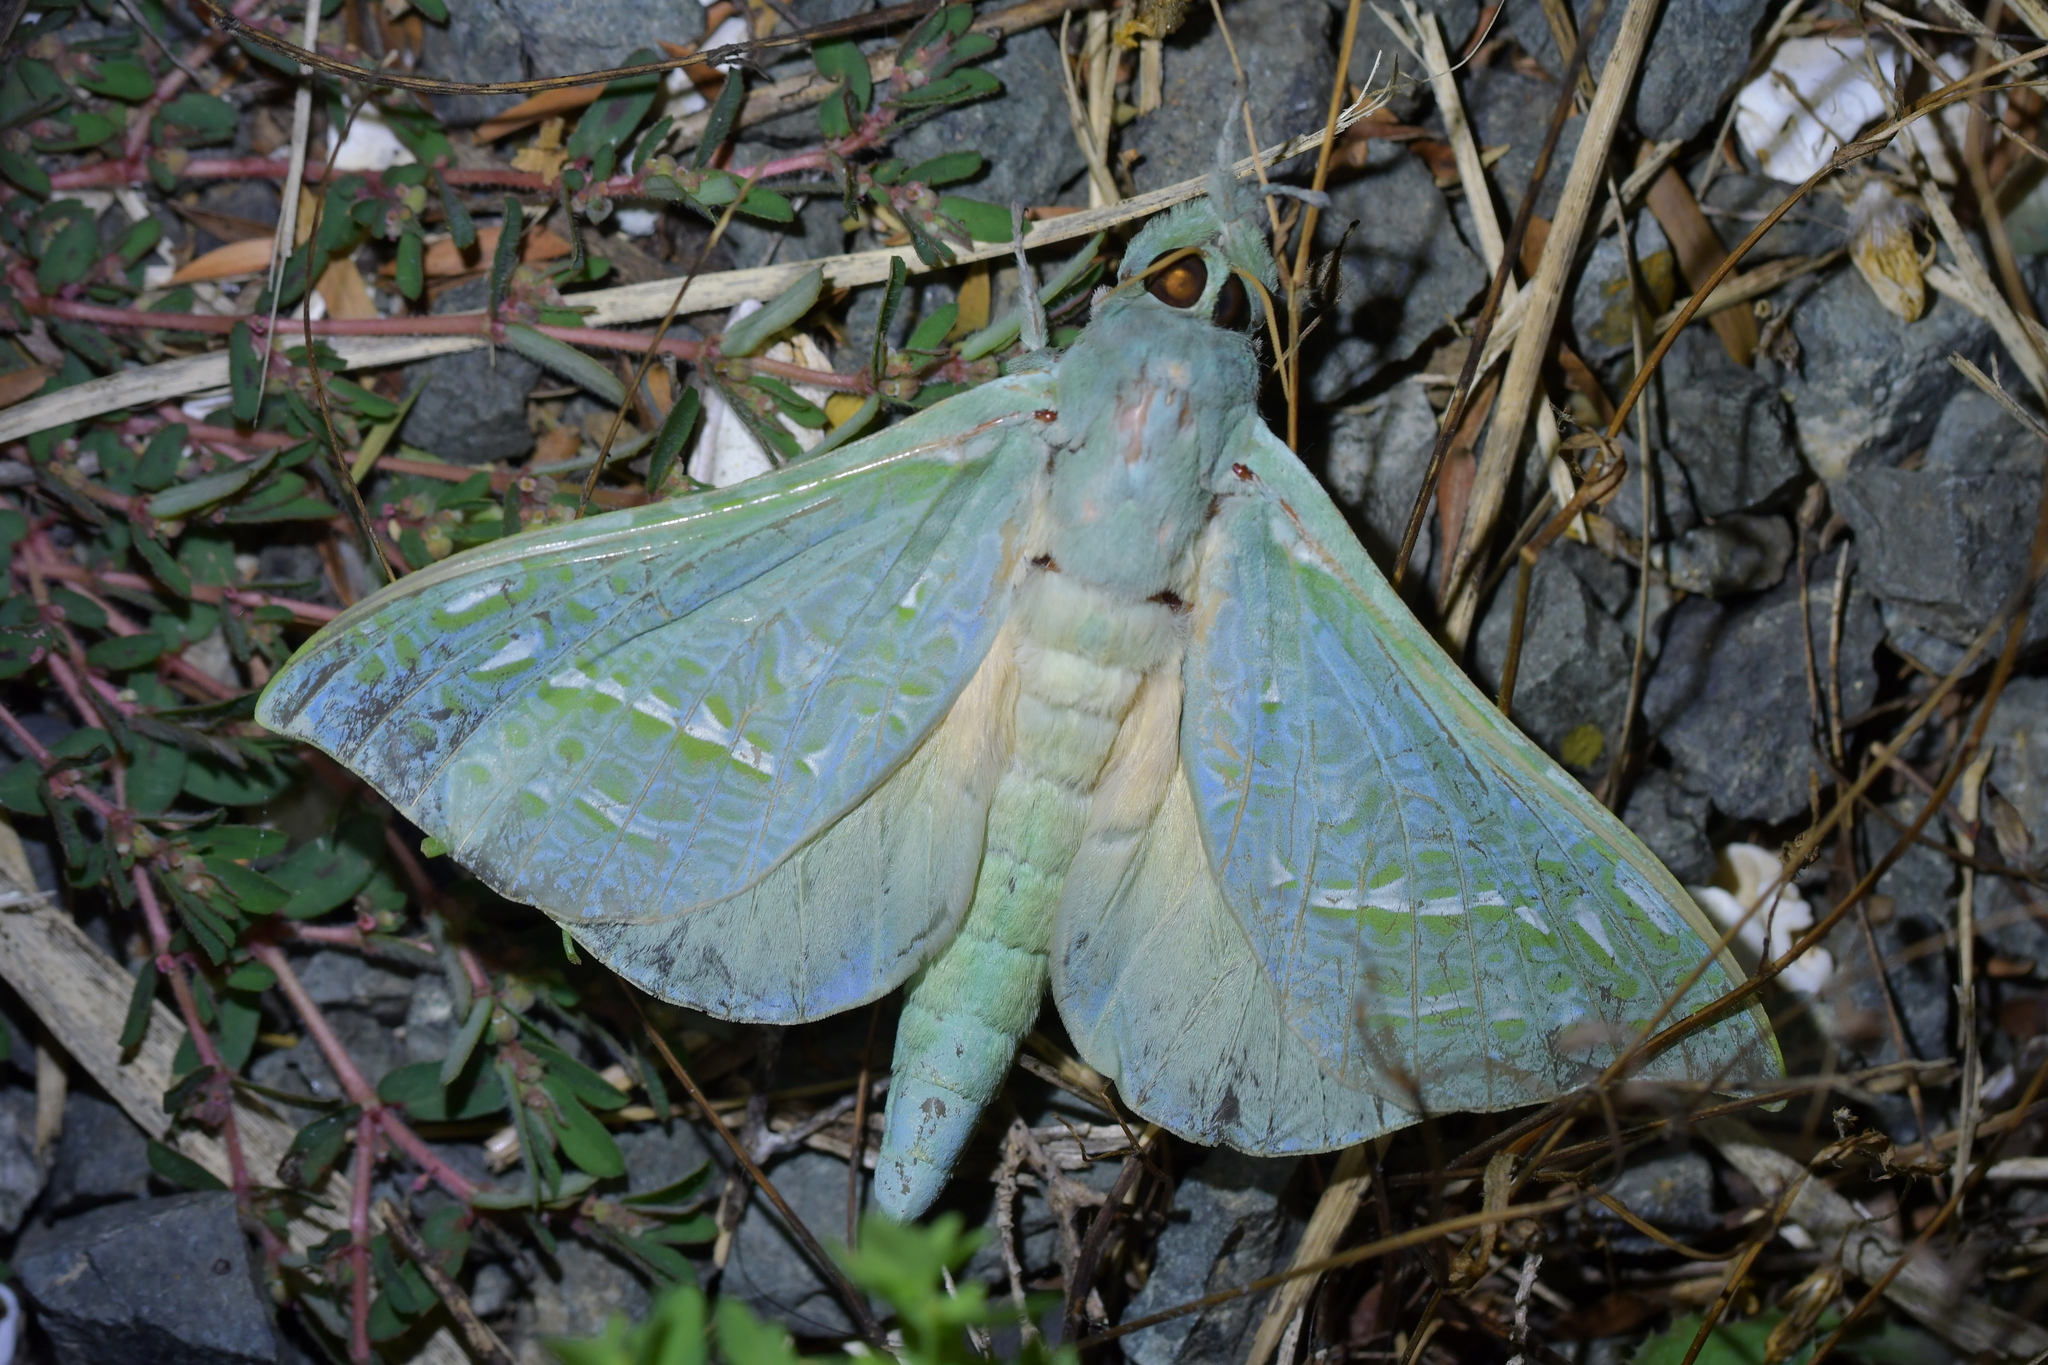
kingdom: Animalia
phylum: Arthropoda
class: Insecta
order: Lepidoptera
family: Hepialidae
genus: Aenetus
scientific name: Aenetus virescens
